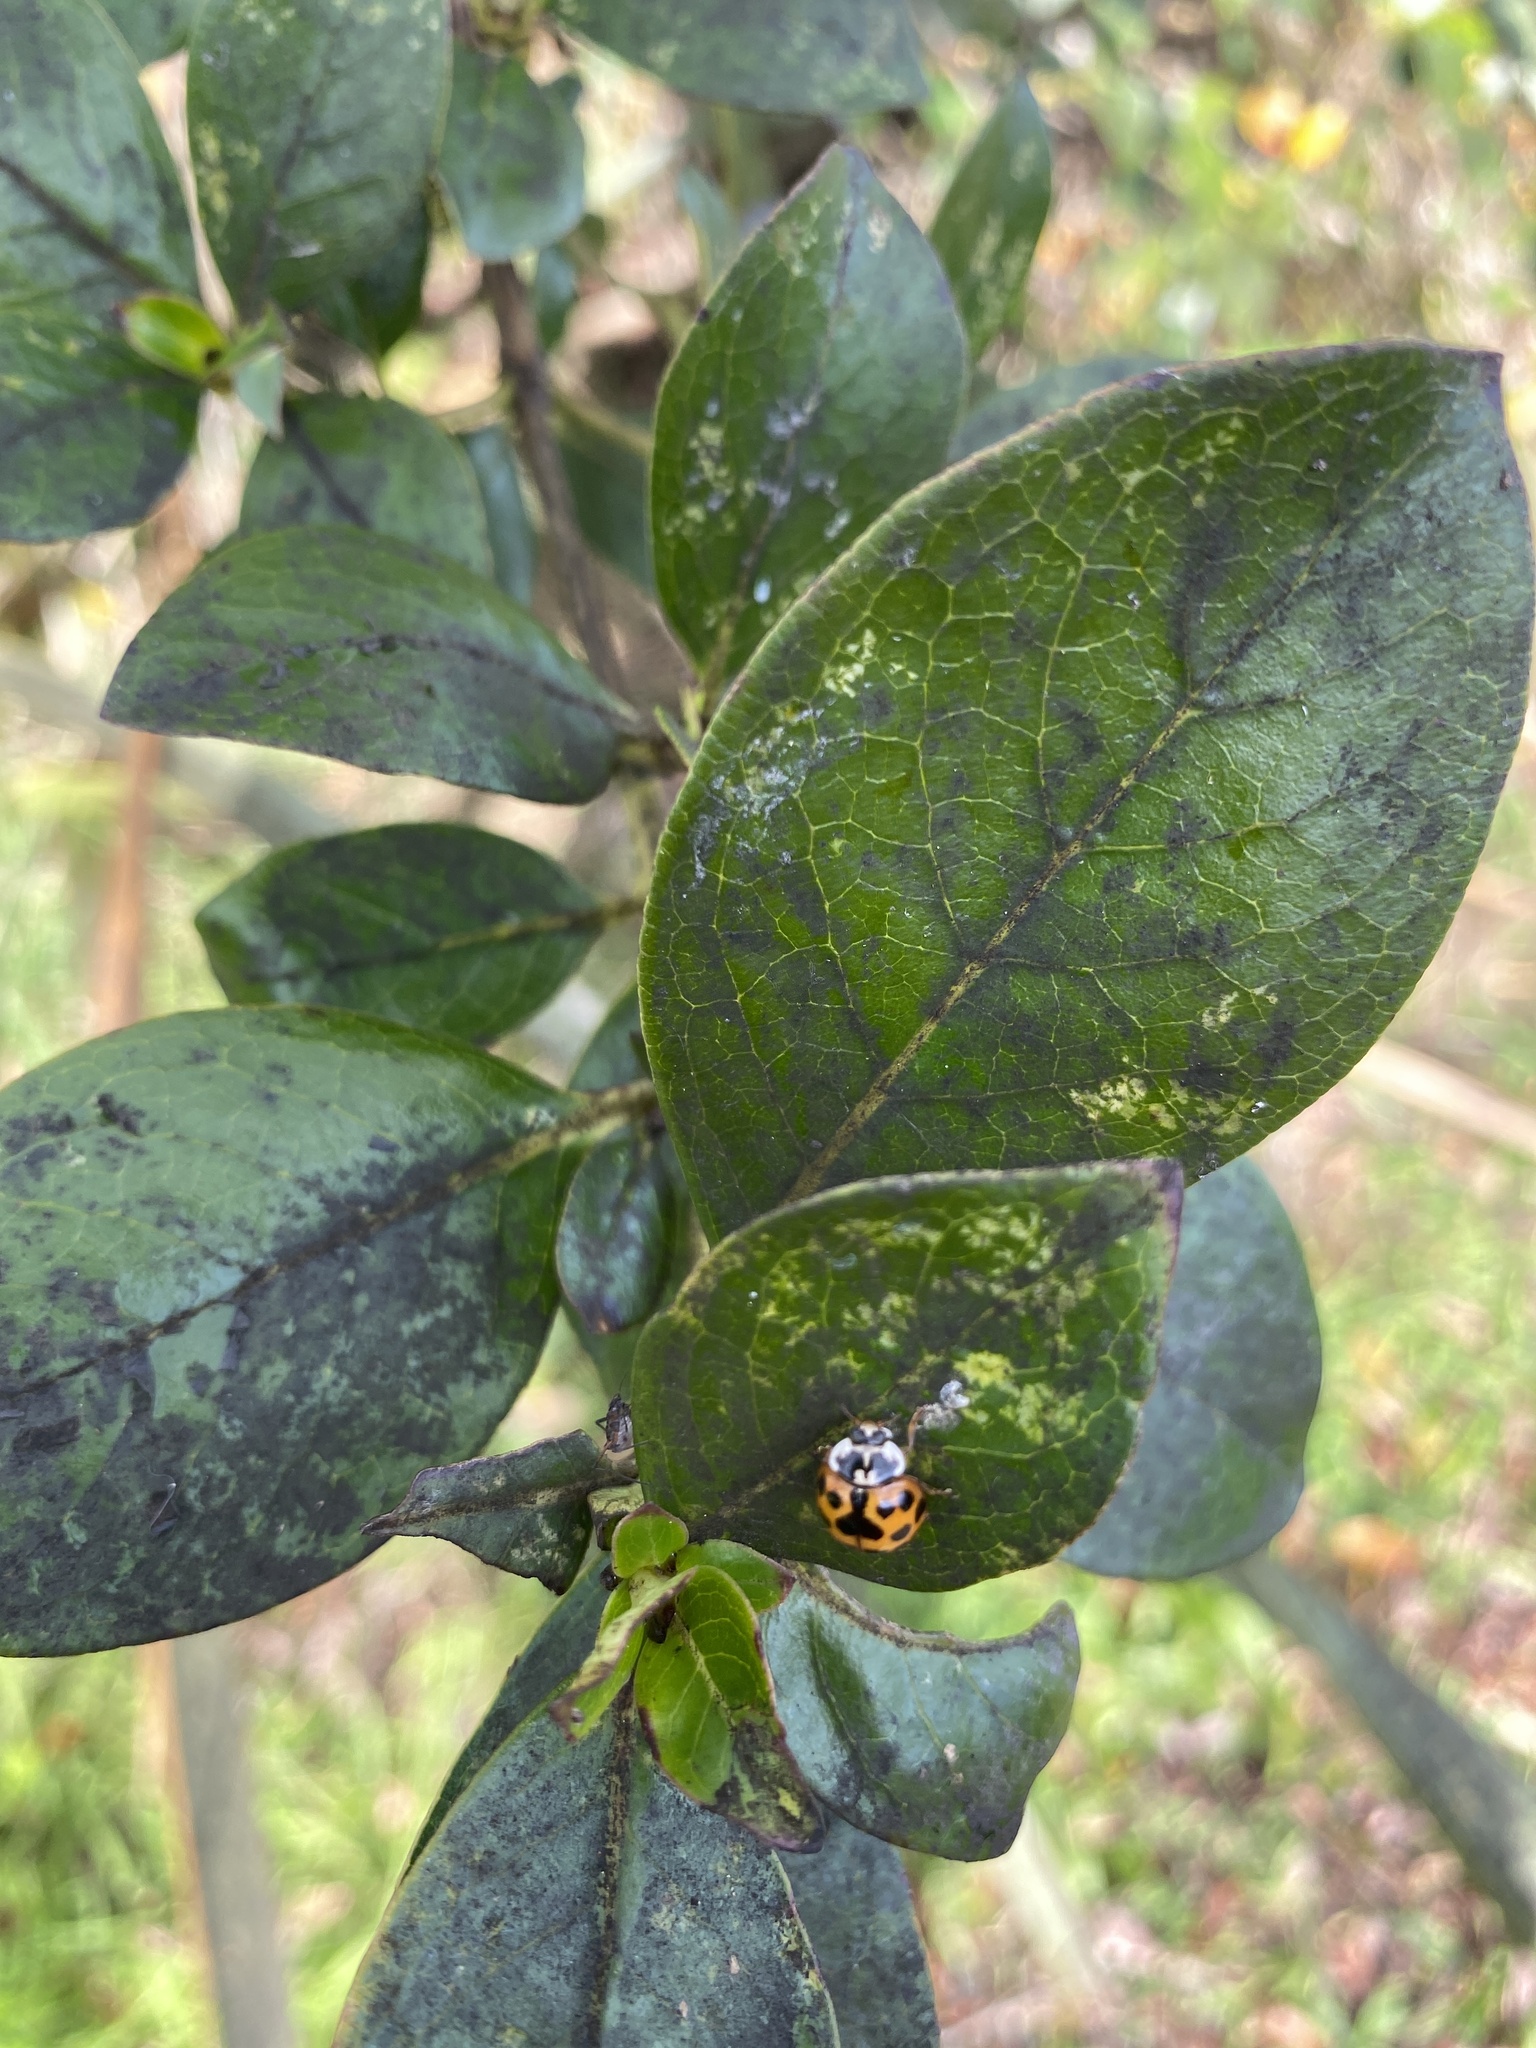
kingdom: Animalia
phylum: Arthropoda
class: Insecta
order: Coleoptera
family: Coccinellidae
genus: Harmonia
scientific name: Harmonia axyridis
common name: Harlequin ladybird
